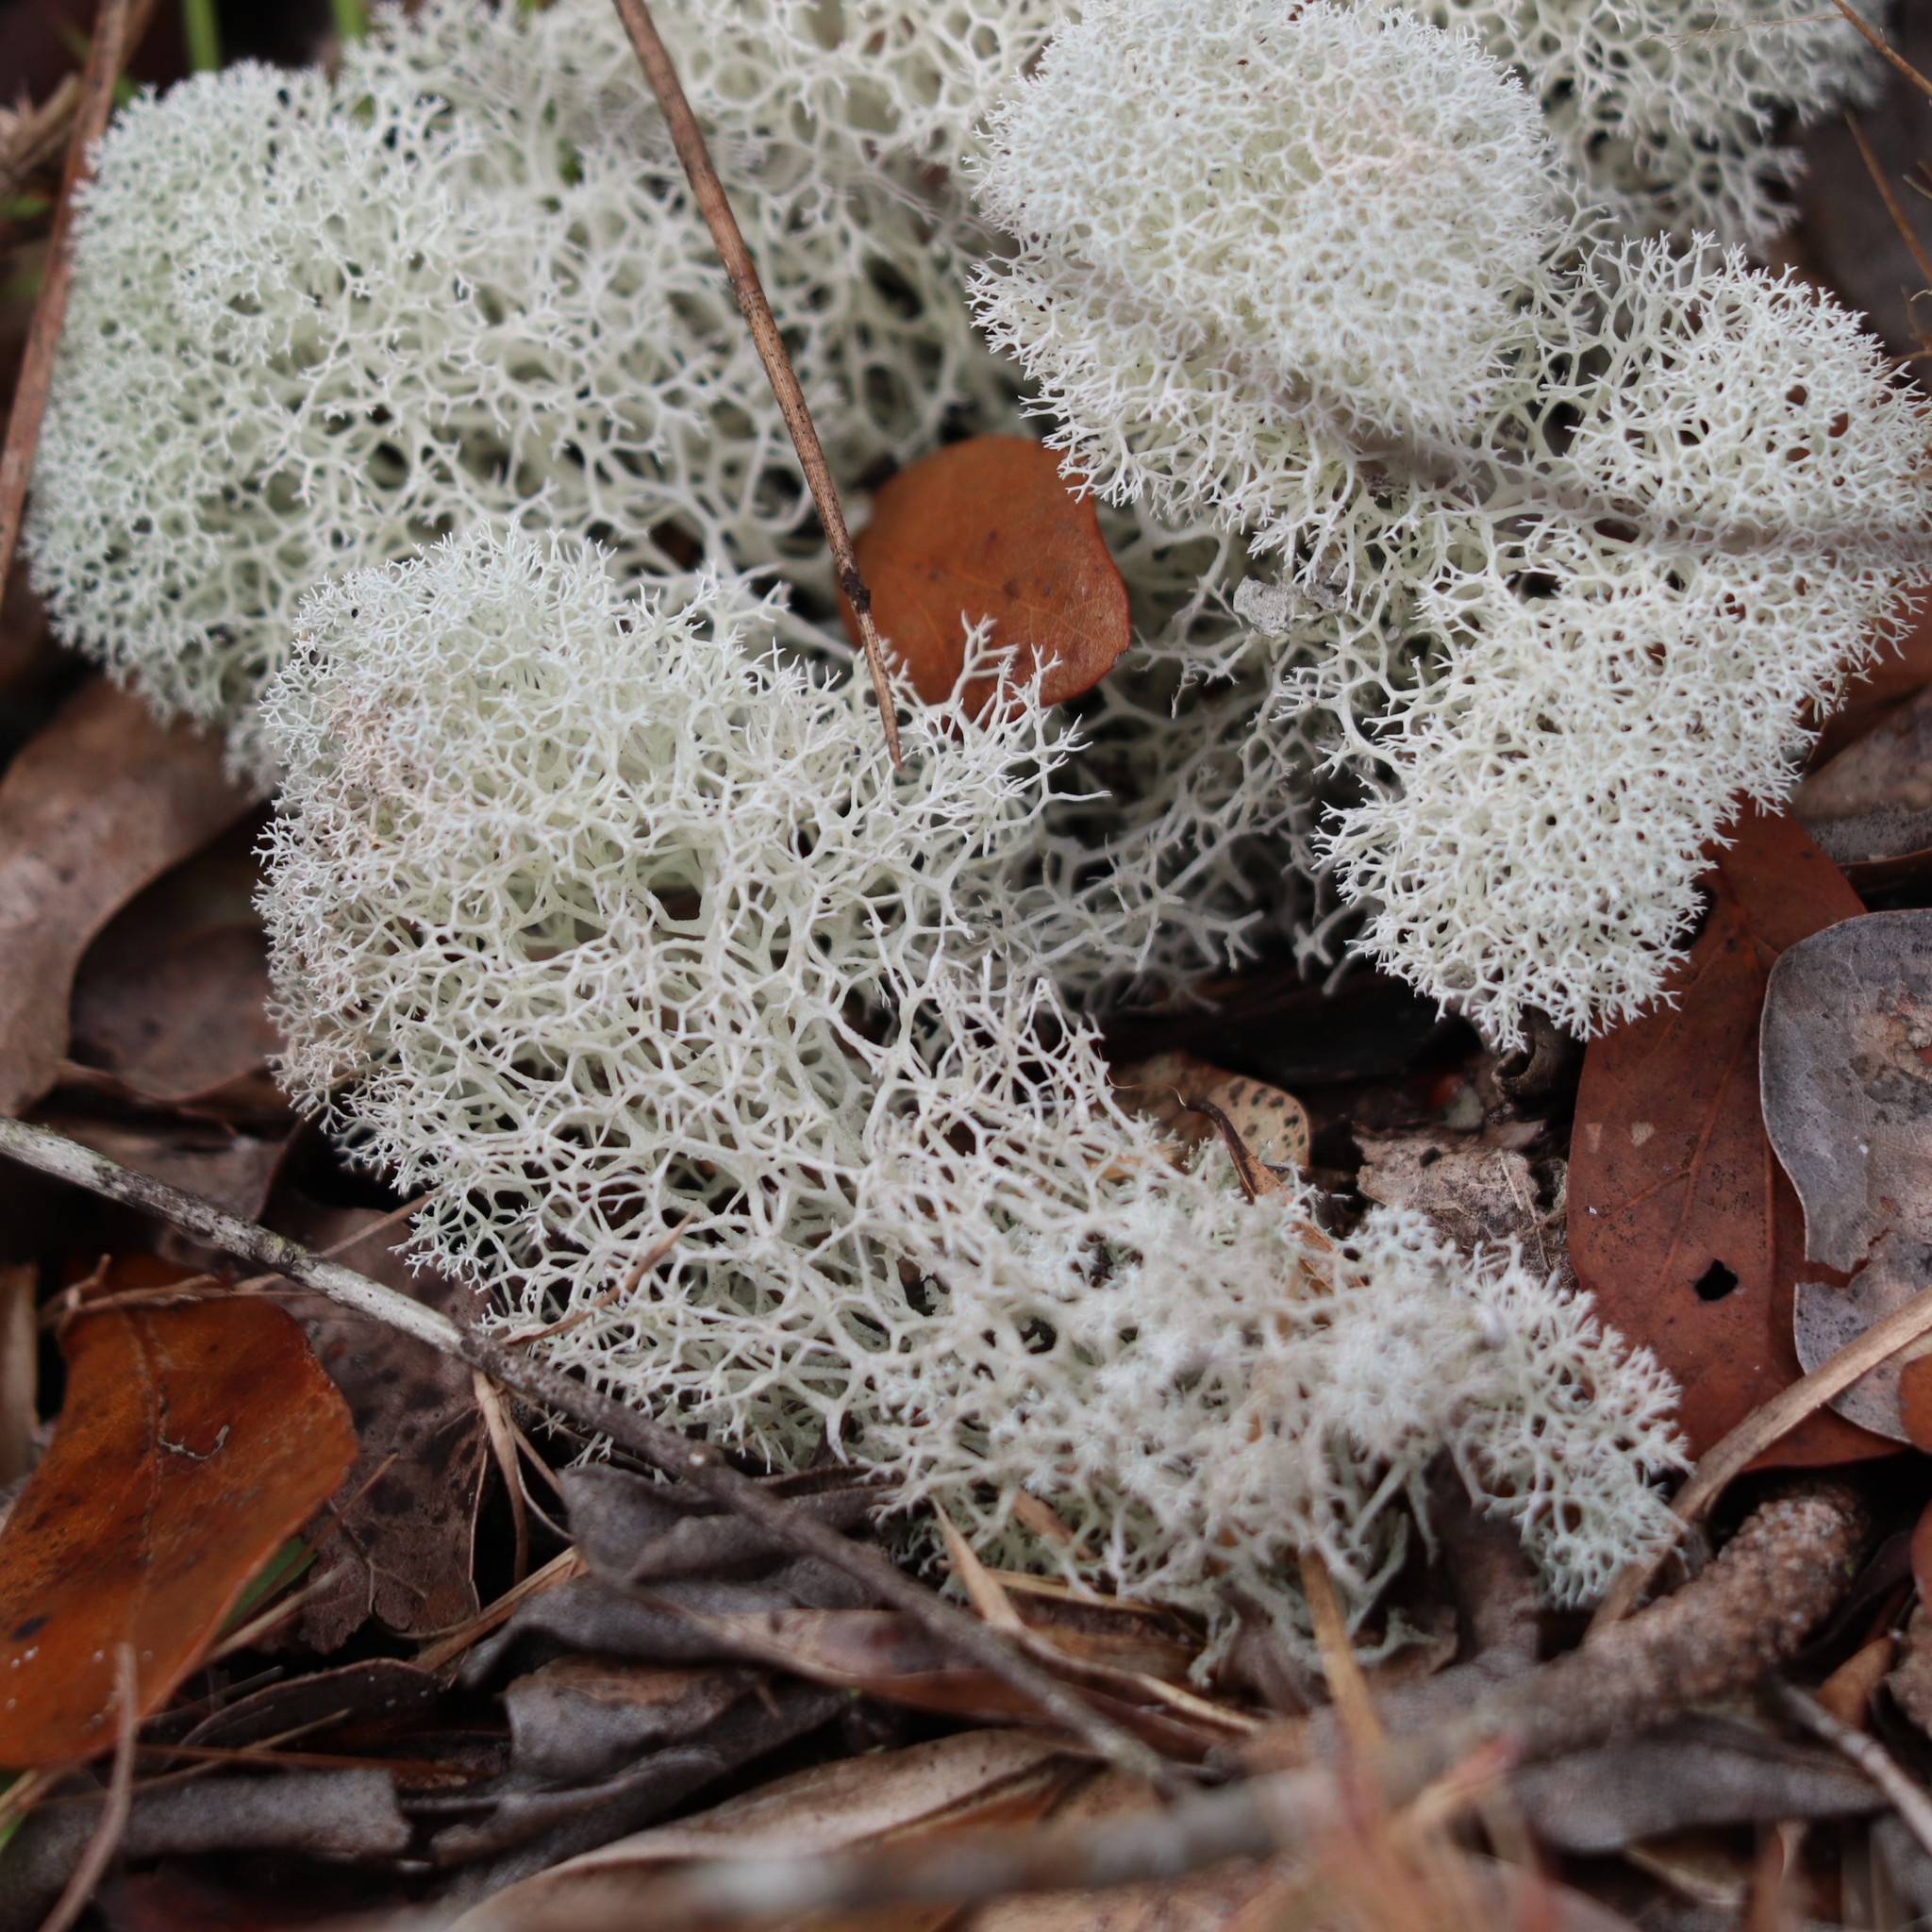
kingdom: Fungi
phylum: Ascomycota
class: Lecanoromycetes
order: Lecanorales
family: Cladoniaceae
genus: Cladonia
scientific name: Cladonia evansii
